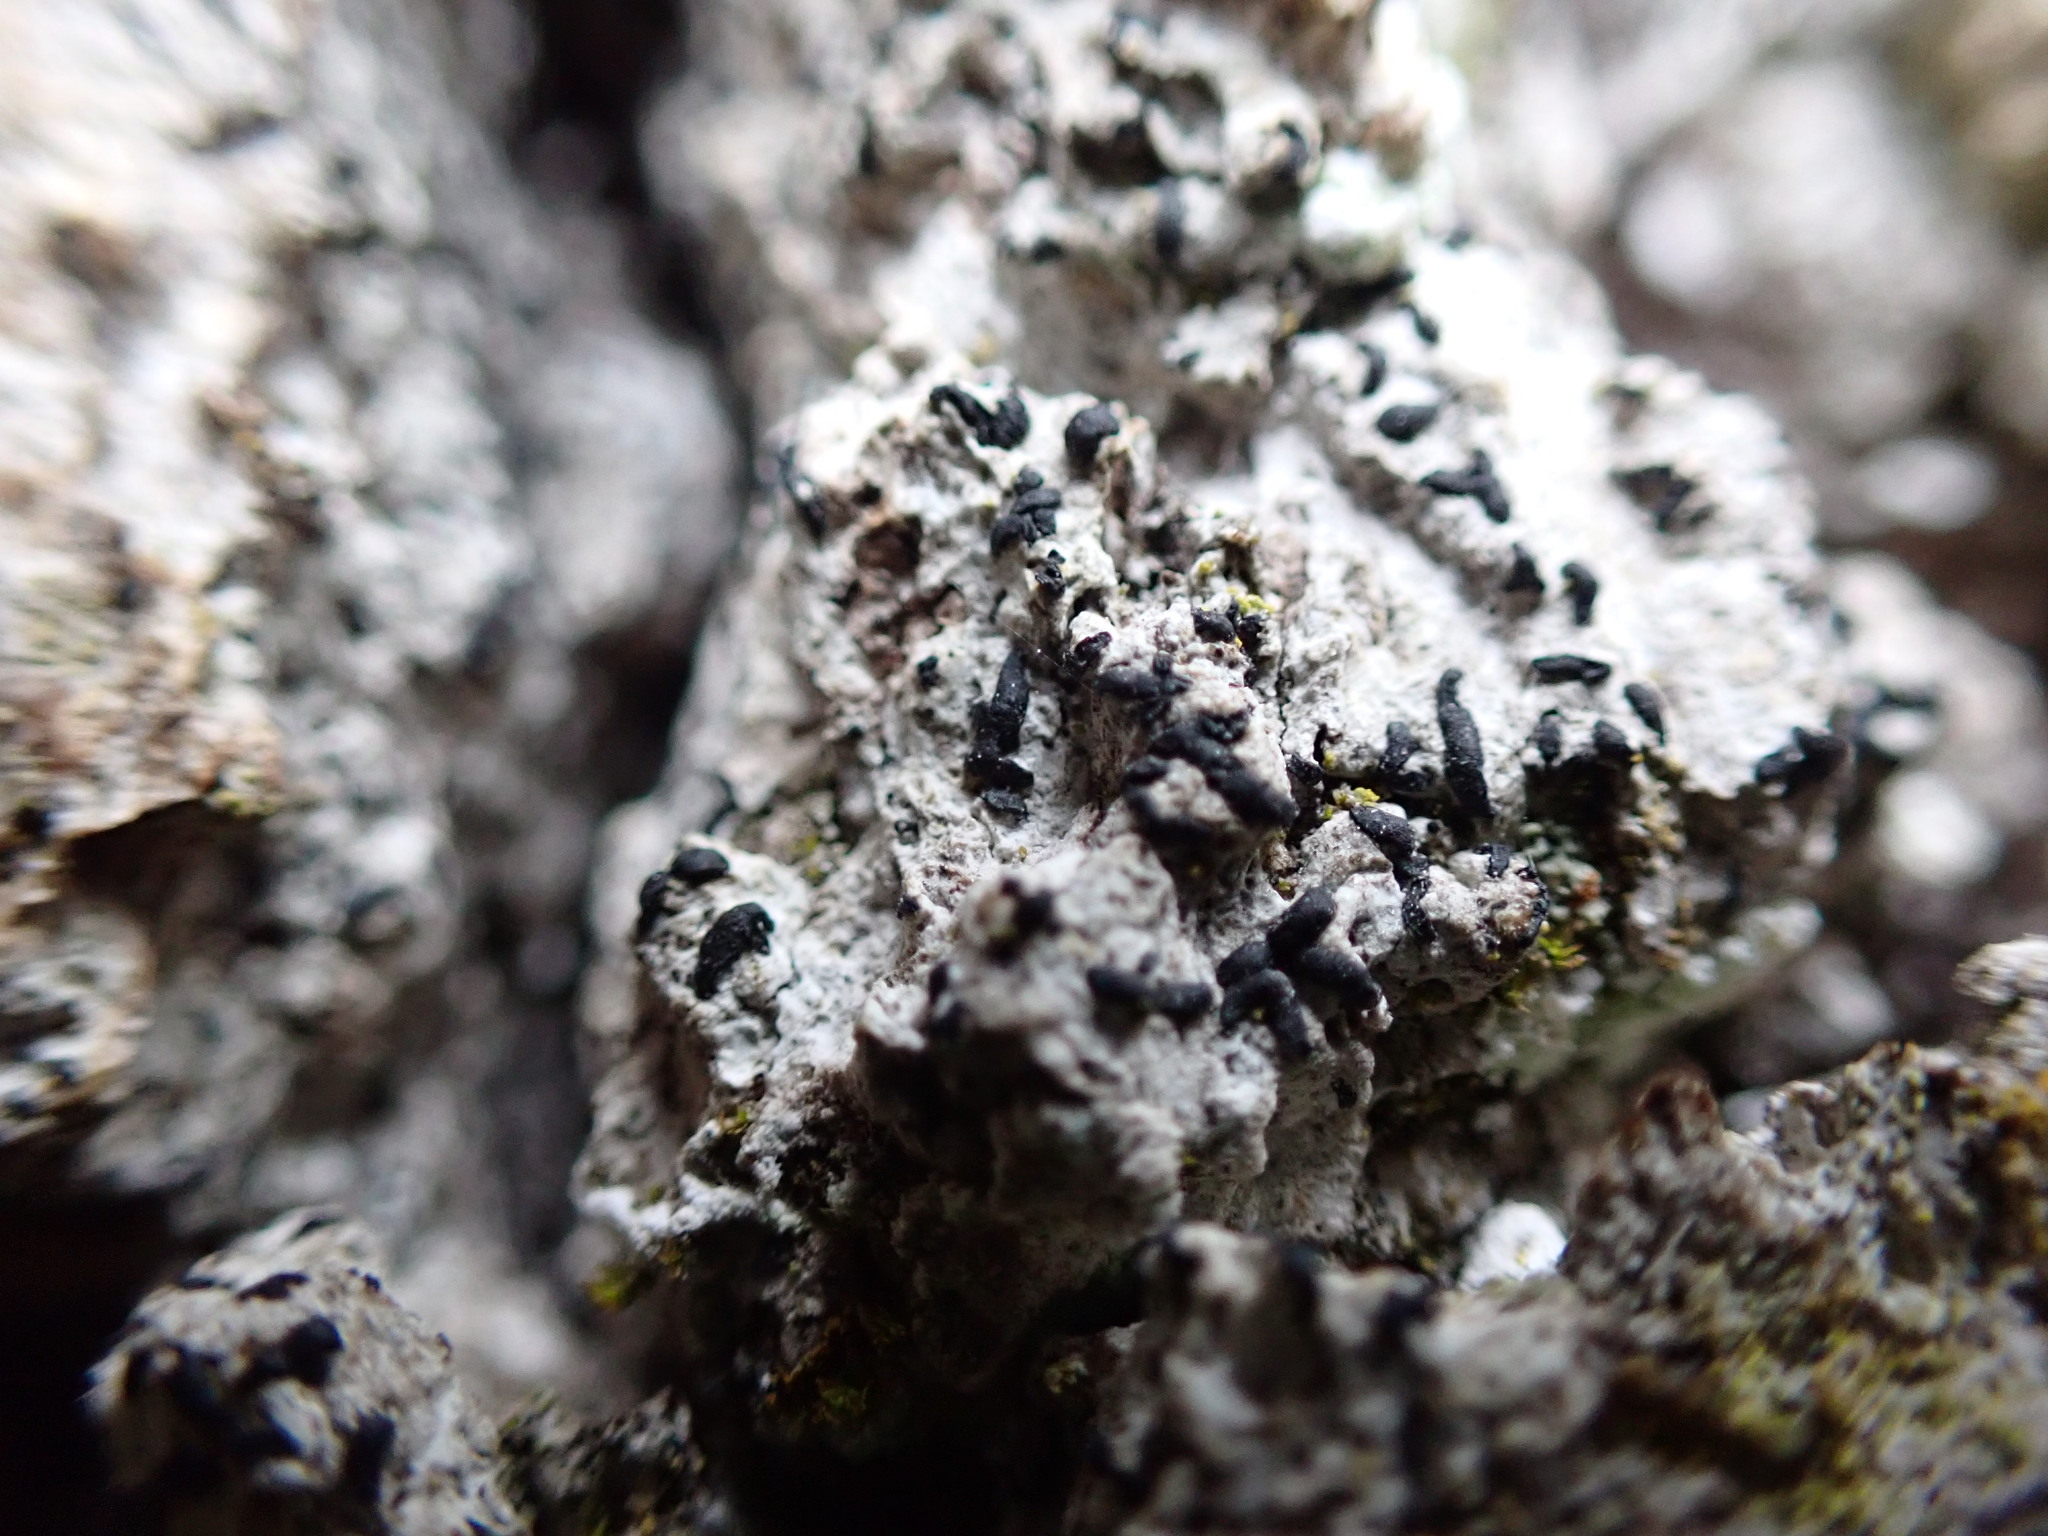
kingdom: Fungi
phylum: Ascomycota
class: Arthoniomycetes
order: Arthoniales
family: Lecanographaceae
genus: Alyxoria
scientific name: Alyxoria varia
